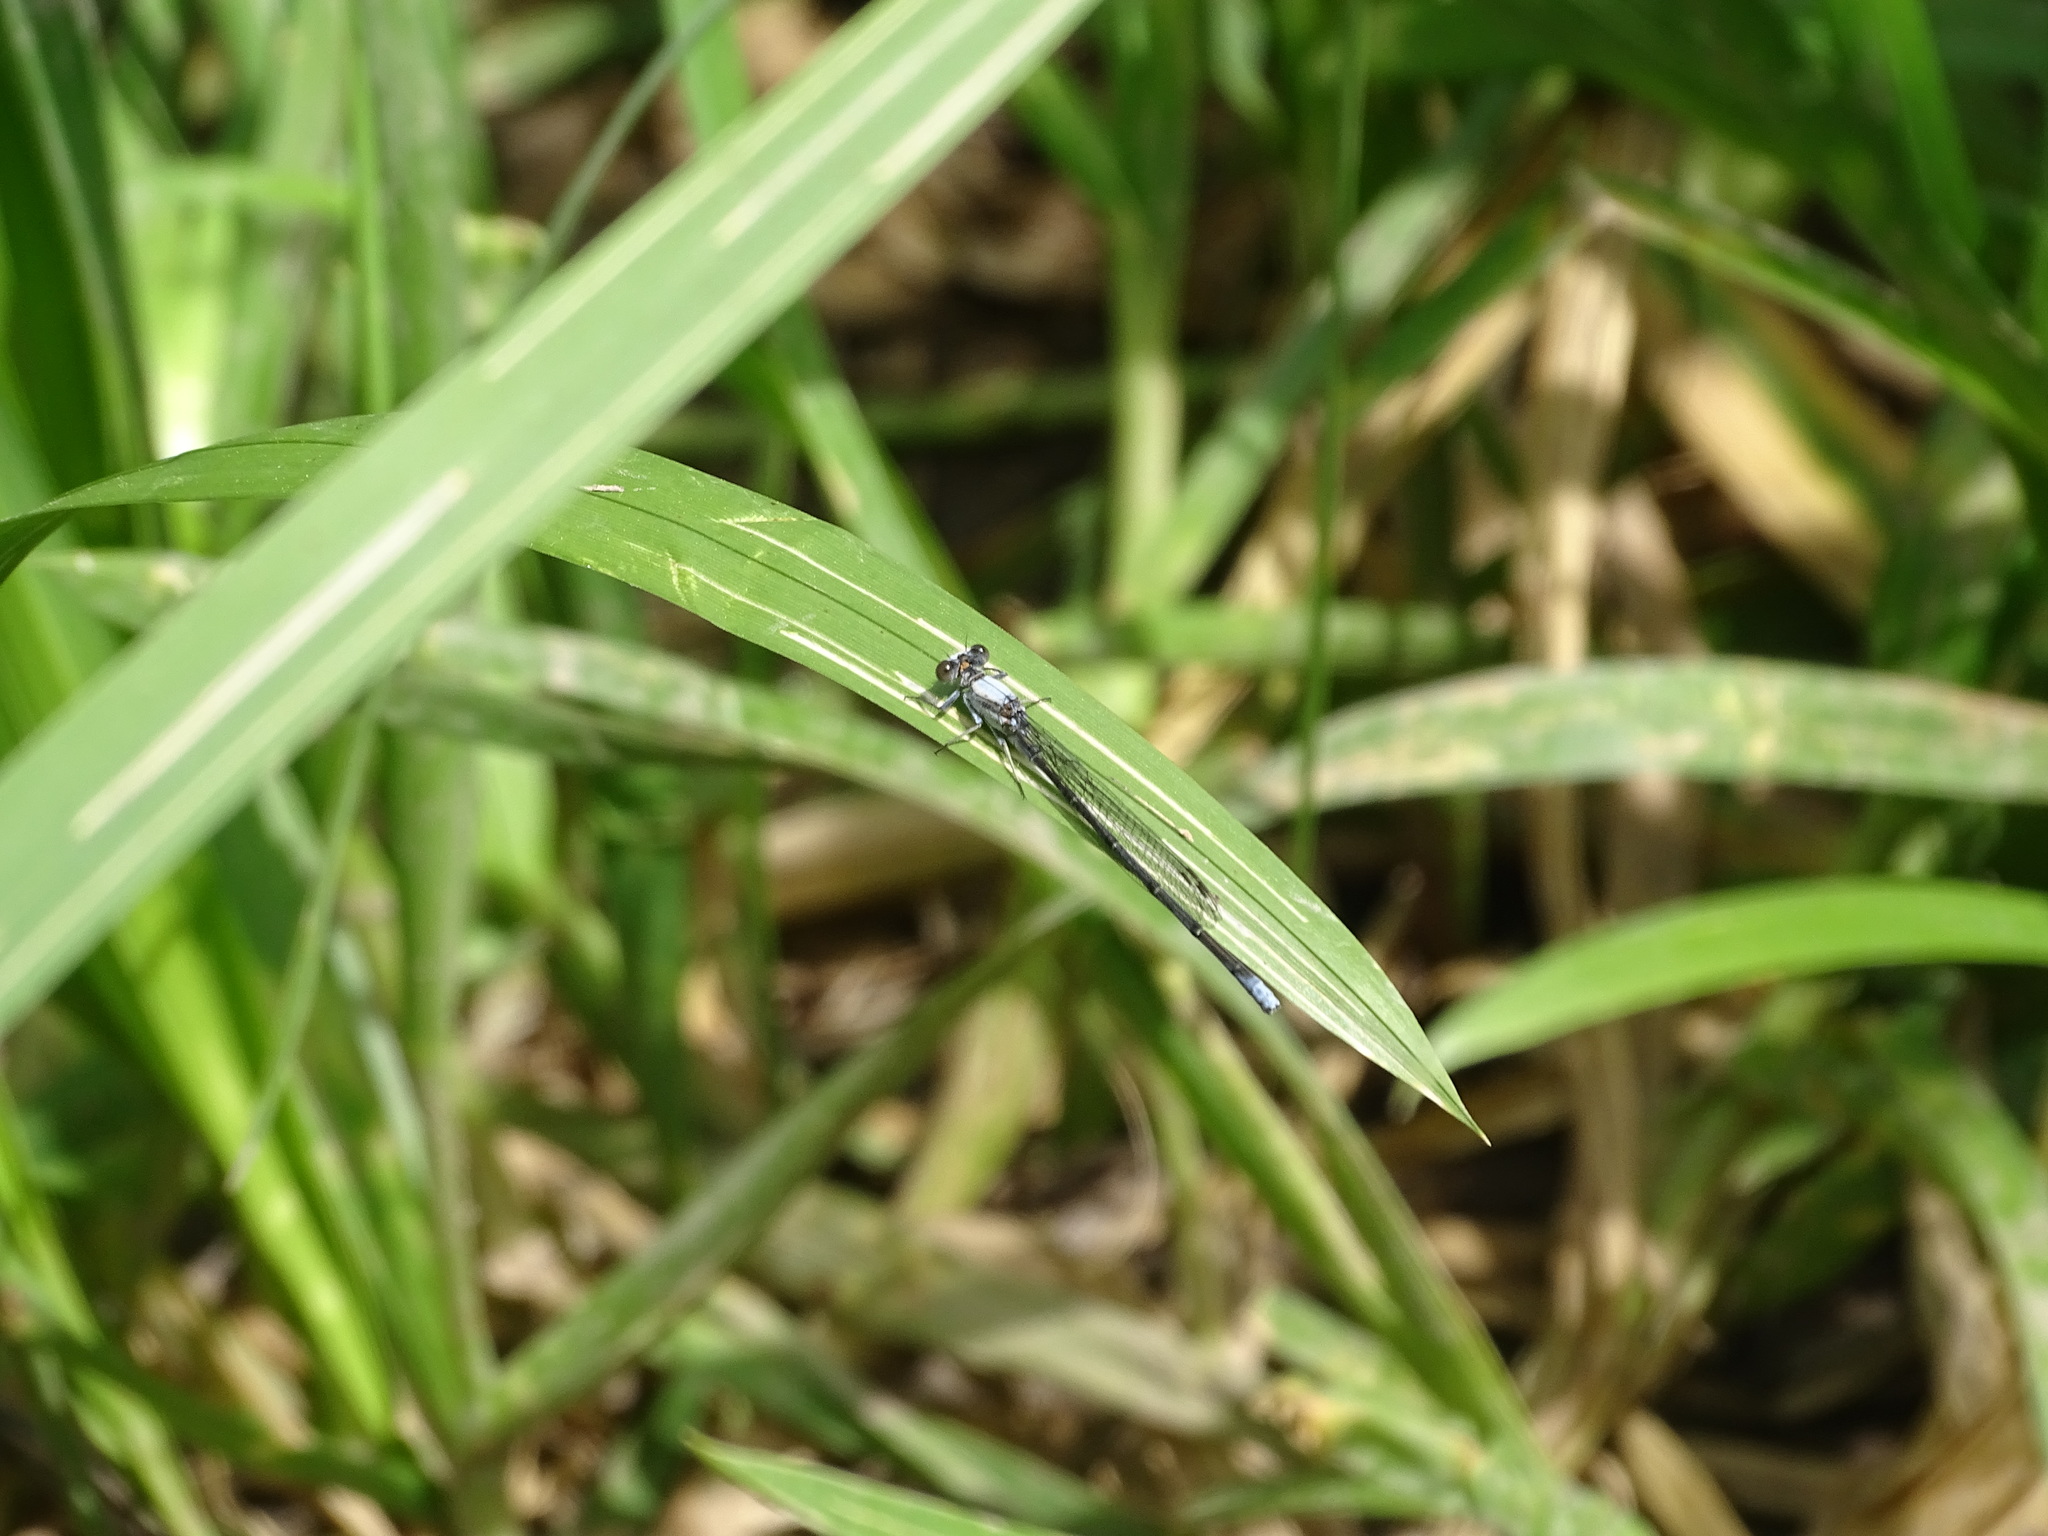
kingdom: Animalia
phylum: Arthropoda
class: Insecta
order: Odonata
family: Coenagrionidae
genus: Argia
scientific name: Argia moesta
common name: Powdered dancer
